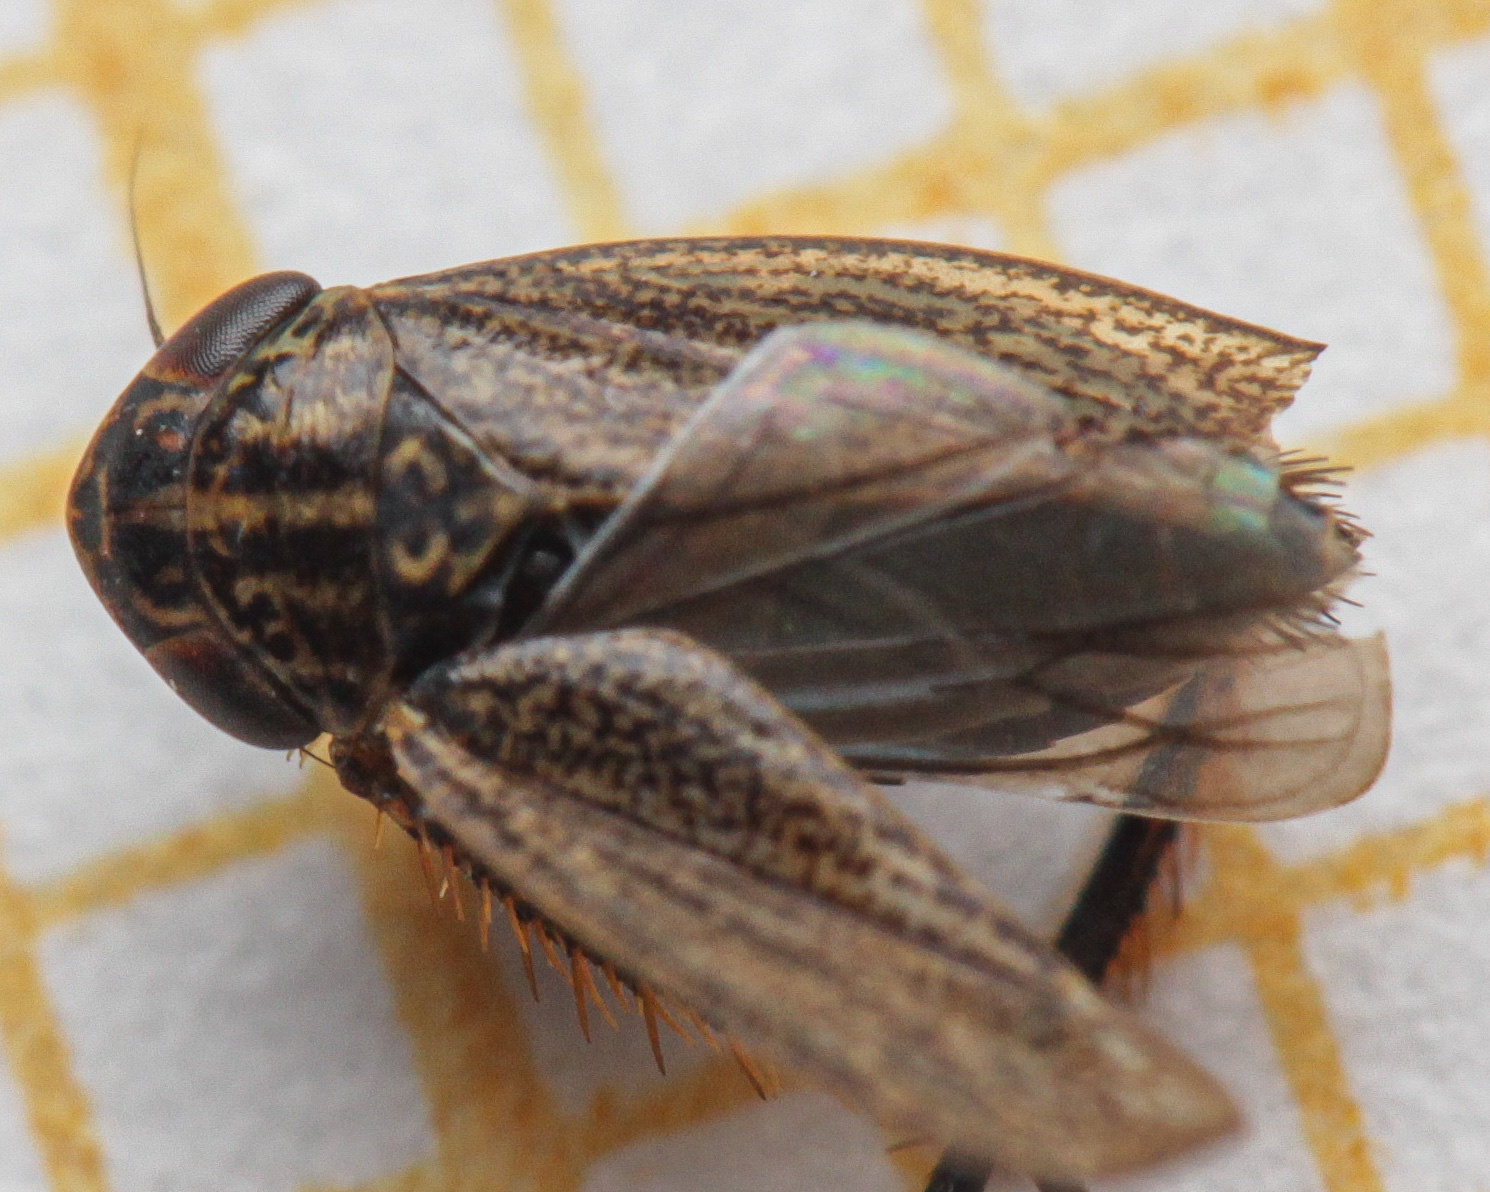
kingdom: Animalia
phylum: Arthropoda
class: Insecta
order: Hemiptera
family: Cicadellidae
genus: Euscelis
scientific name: Euscelis incisa
